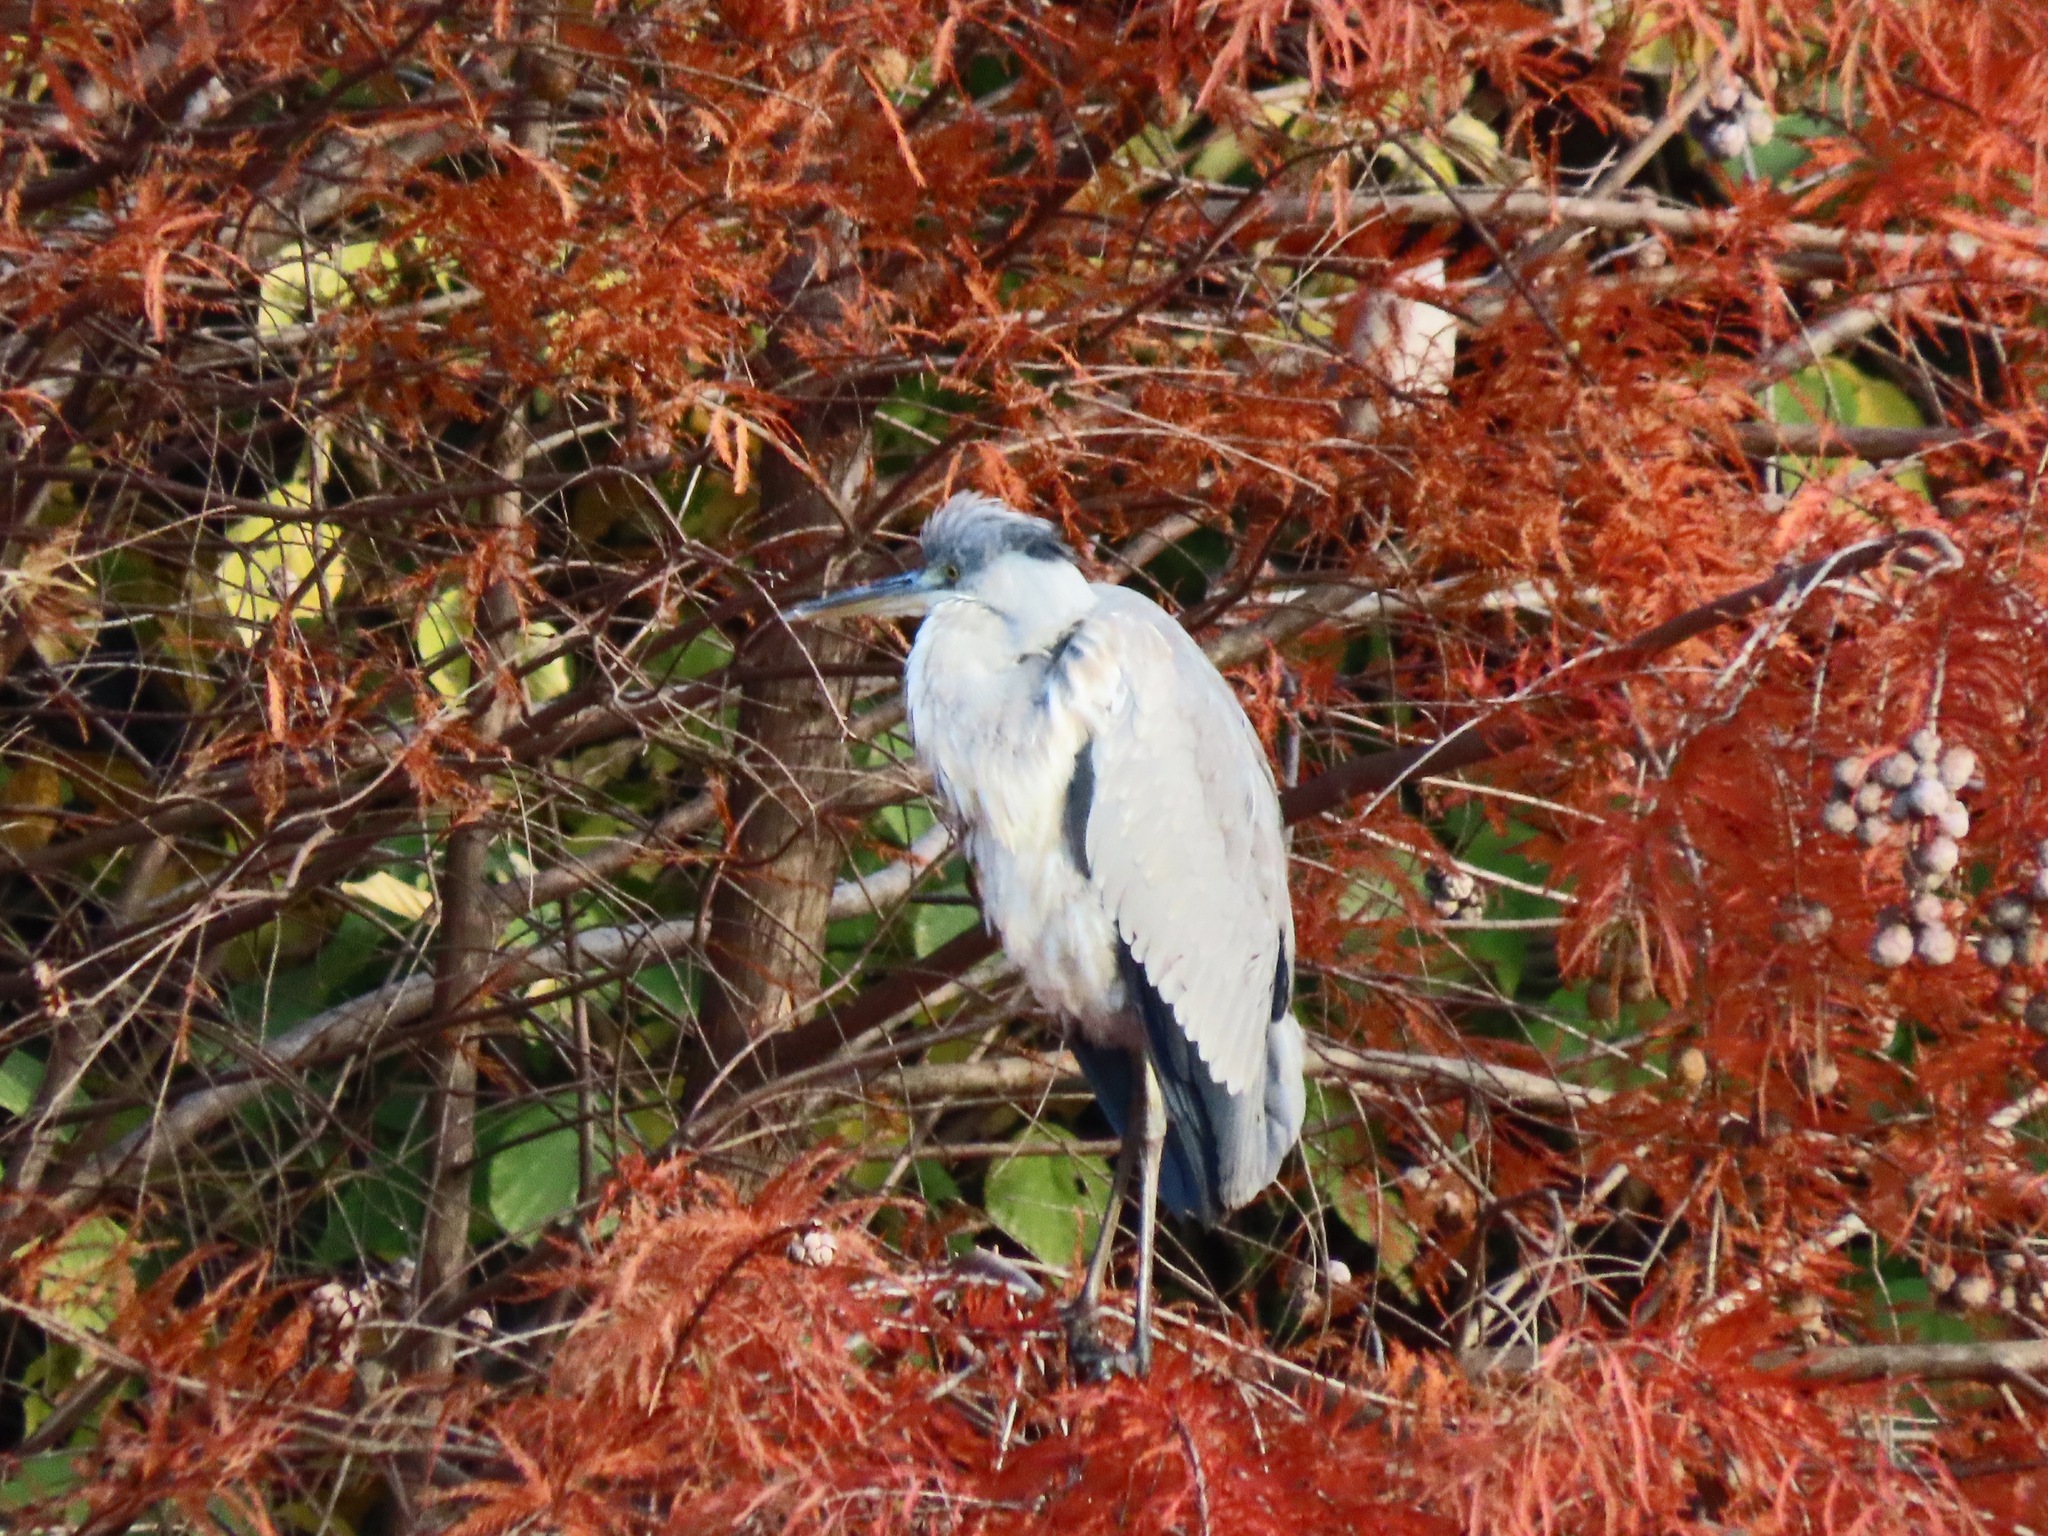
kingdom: Animalia
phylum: Chordata
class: Aves
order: Pelecaniformes
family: Ardeidae
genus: Ardea
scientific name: Ardea cinerea
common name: Grey heron
